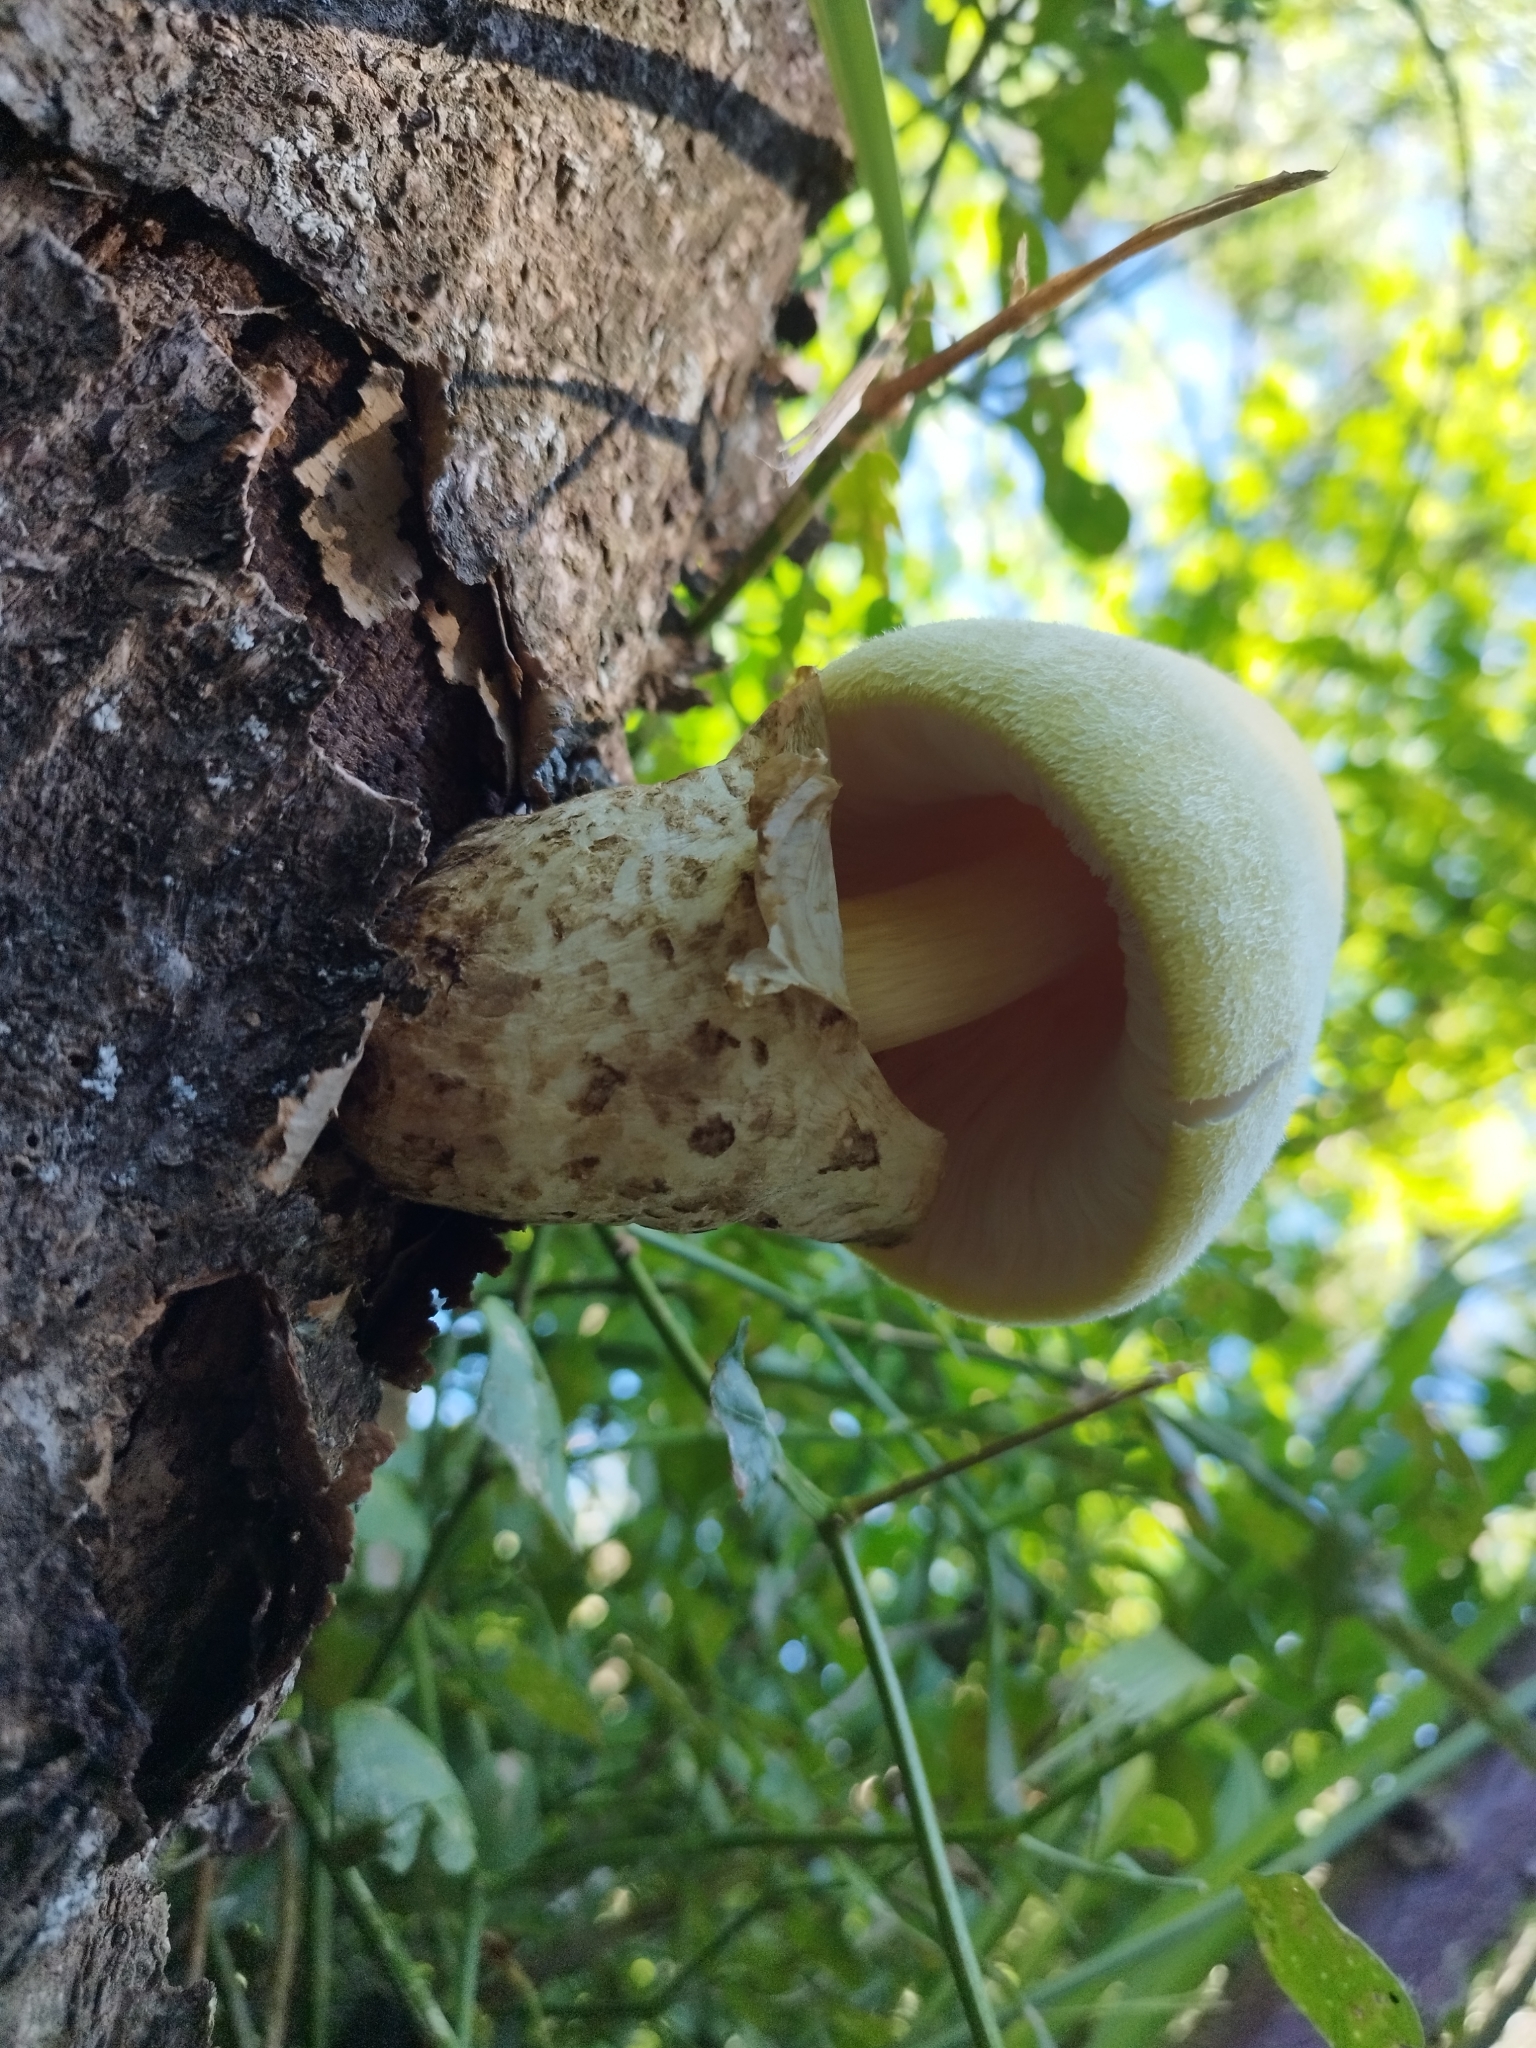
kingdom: Fungi
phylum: Basidiomycota
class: Agaricomycetes
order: Agaricales
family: Pluteaceae
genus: Volvariella
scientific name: Volvariella bombycina
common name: Silky rosegill
